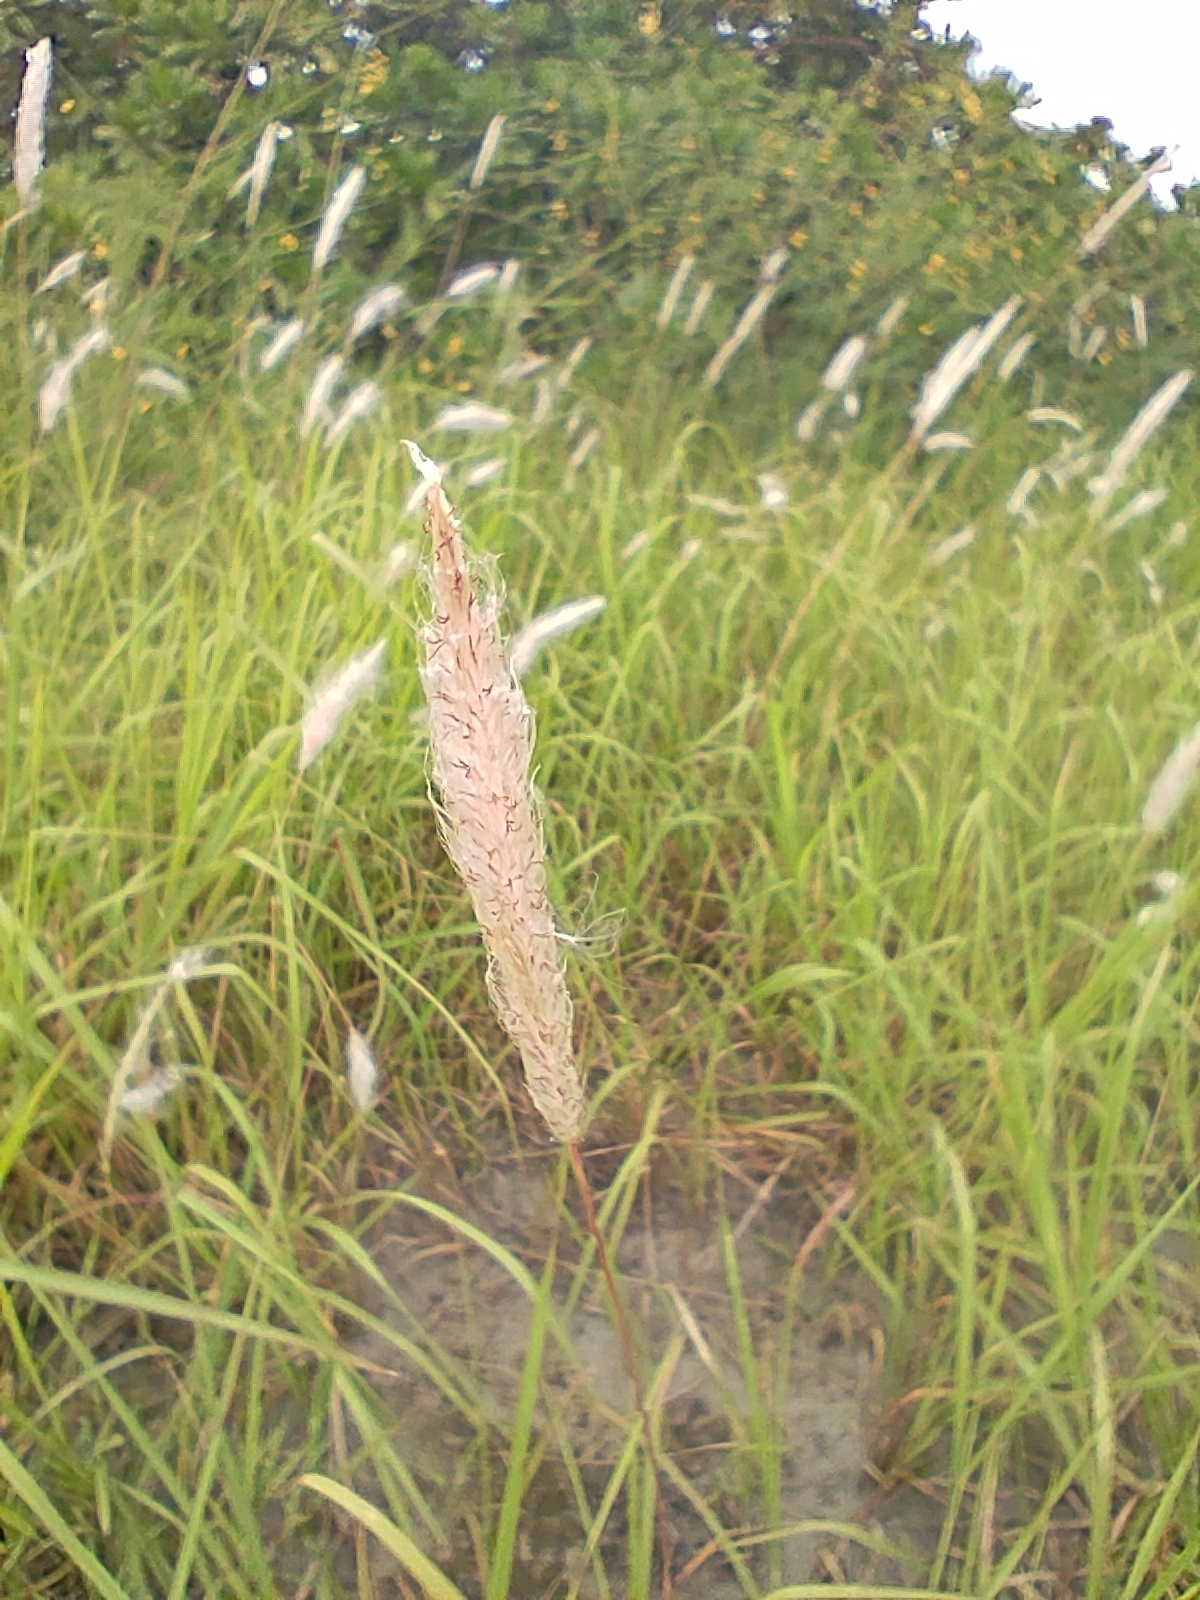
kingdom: Plantae
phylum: Tracheophyta
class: Liliopsida
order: Poales
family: Poaceae
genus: Imperata
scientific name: Imperata cylindrica
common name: Cogongrass
